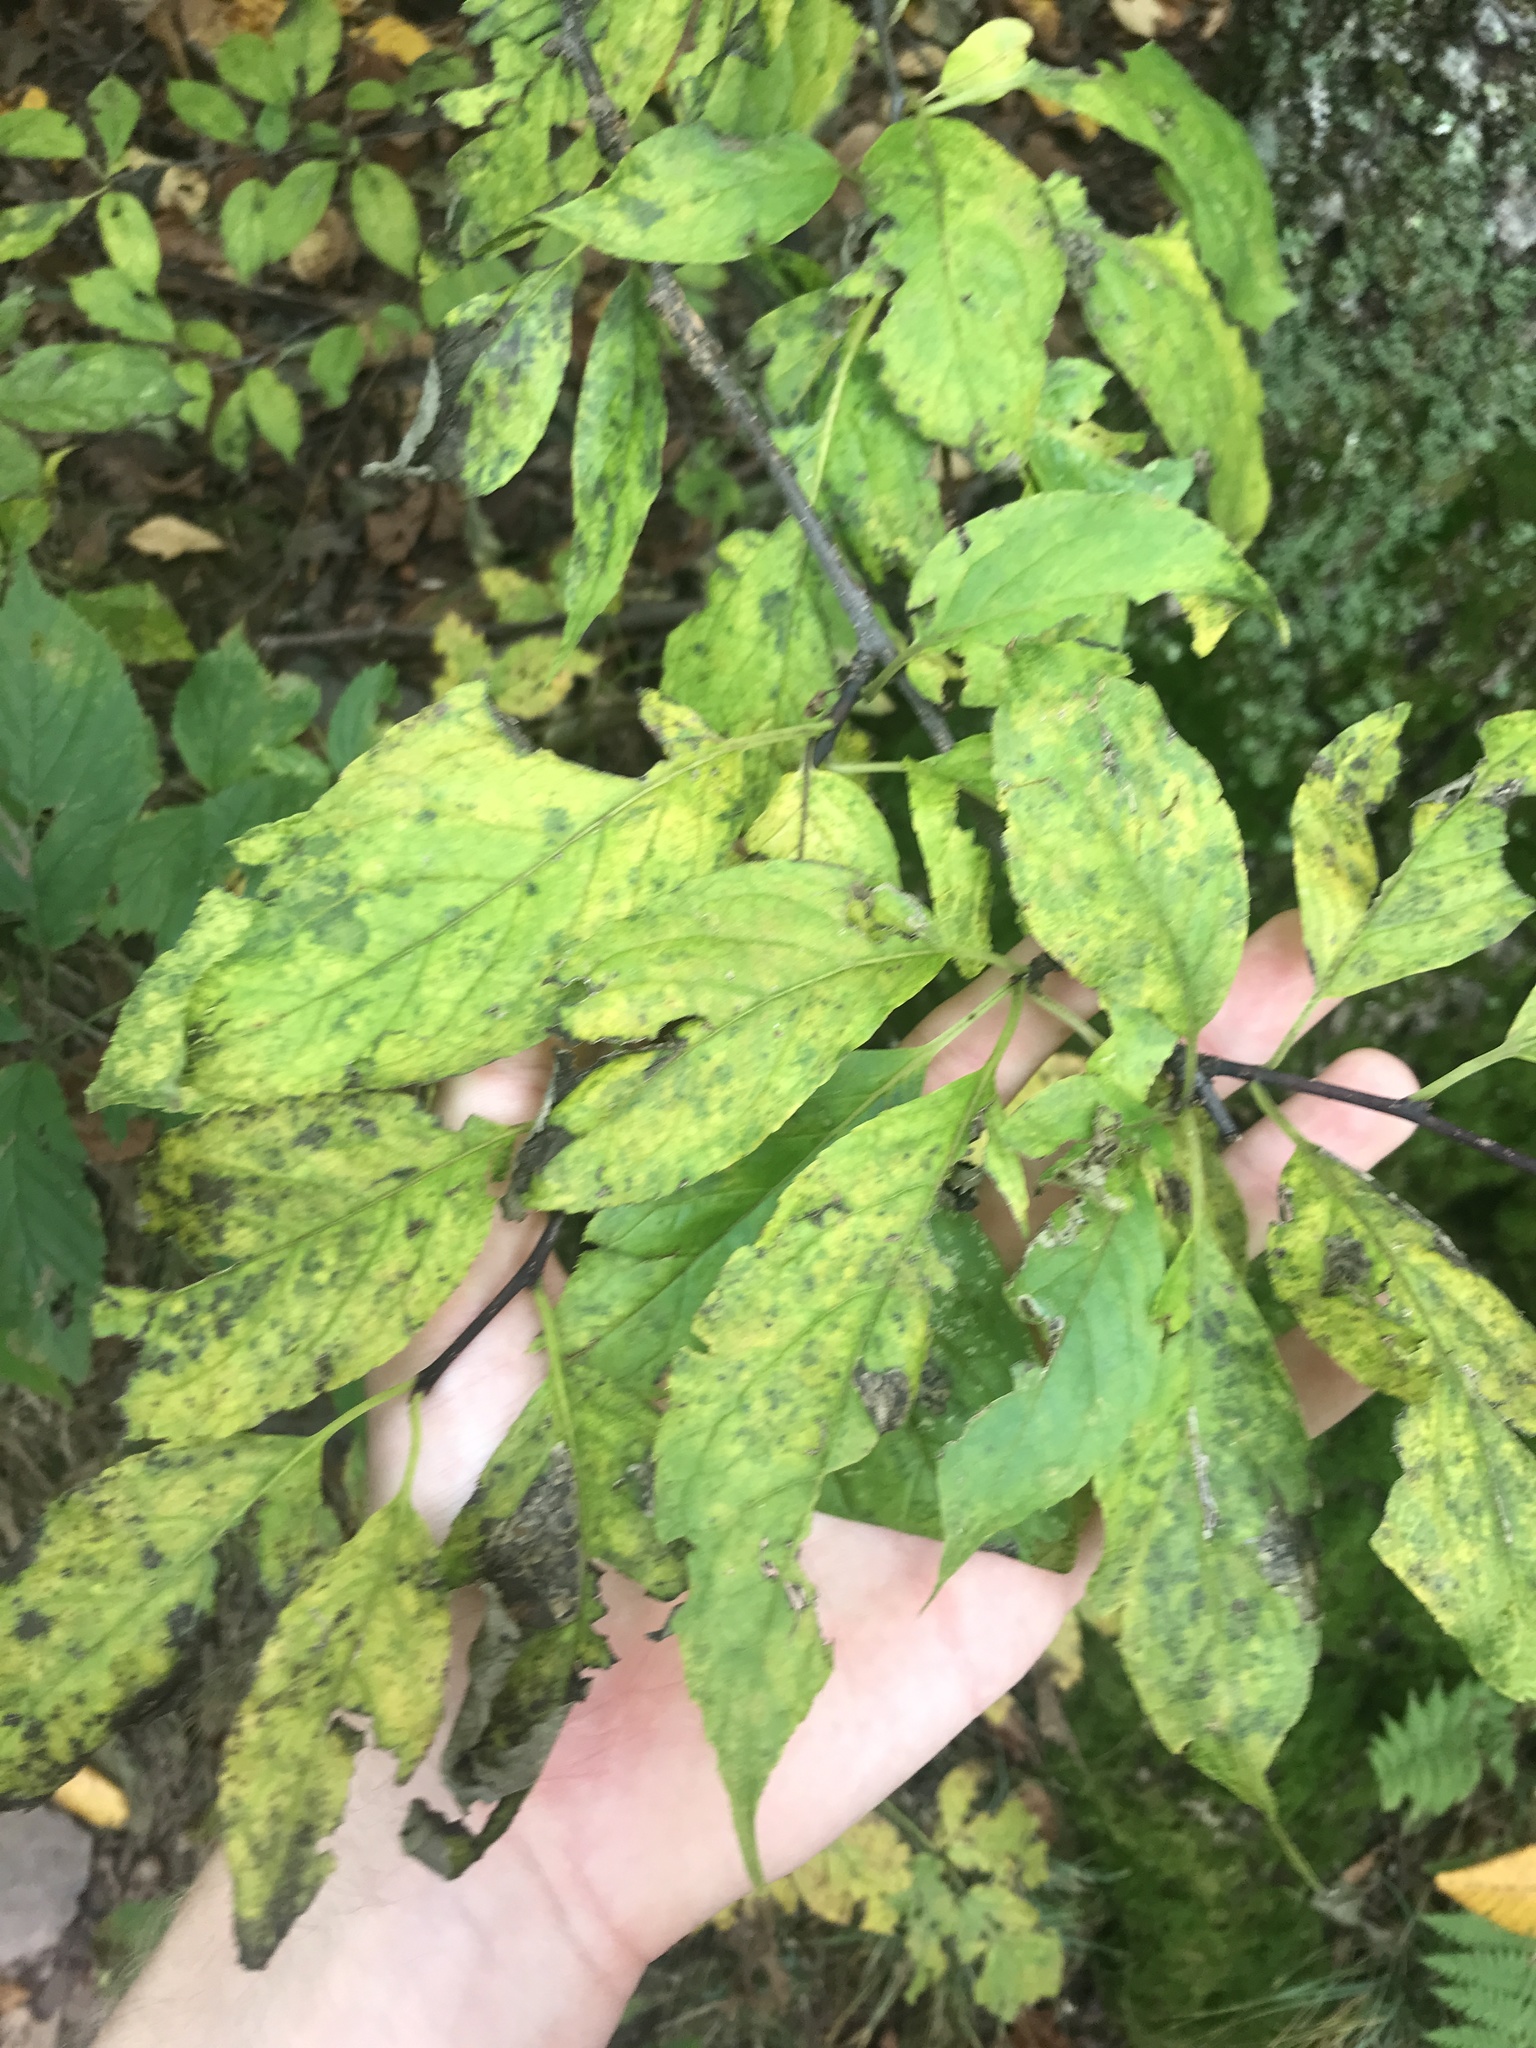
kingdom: Plantae
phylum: Tracheophyta
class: Magnoliopsida
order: Aquifoliales
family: Aquifoliaceae
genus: Ilex
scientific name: Ilex montana
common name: Mountain winterberry
